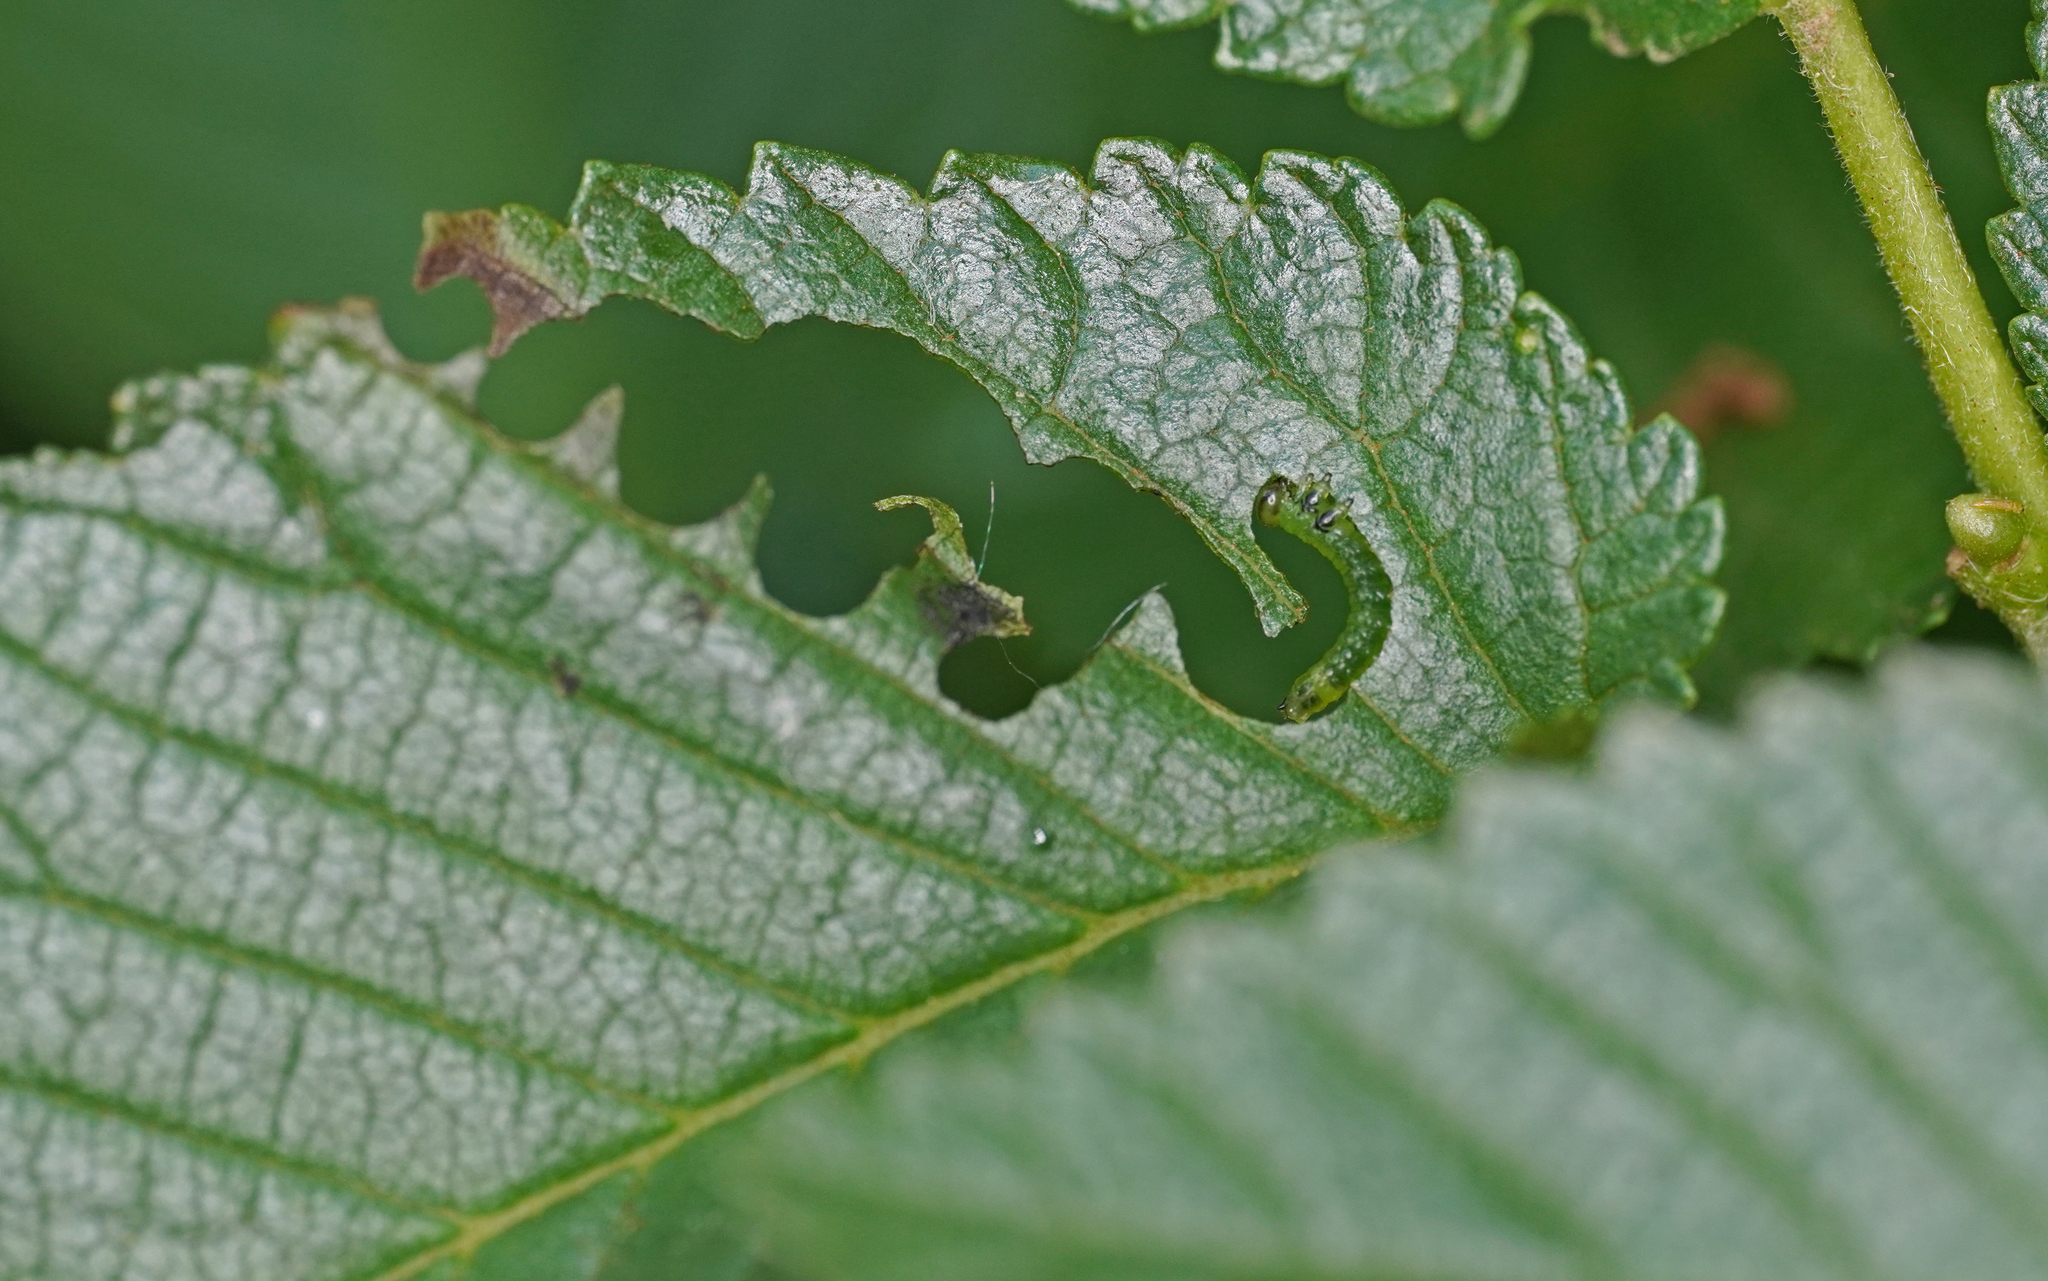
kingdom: Animalia
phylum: Arthropoda
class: Insecta
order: Hymenoptera
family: Argidae
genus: Aproceros
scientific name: Aproceros leucopoda
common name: Zig-zag elm sawfly
